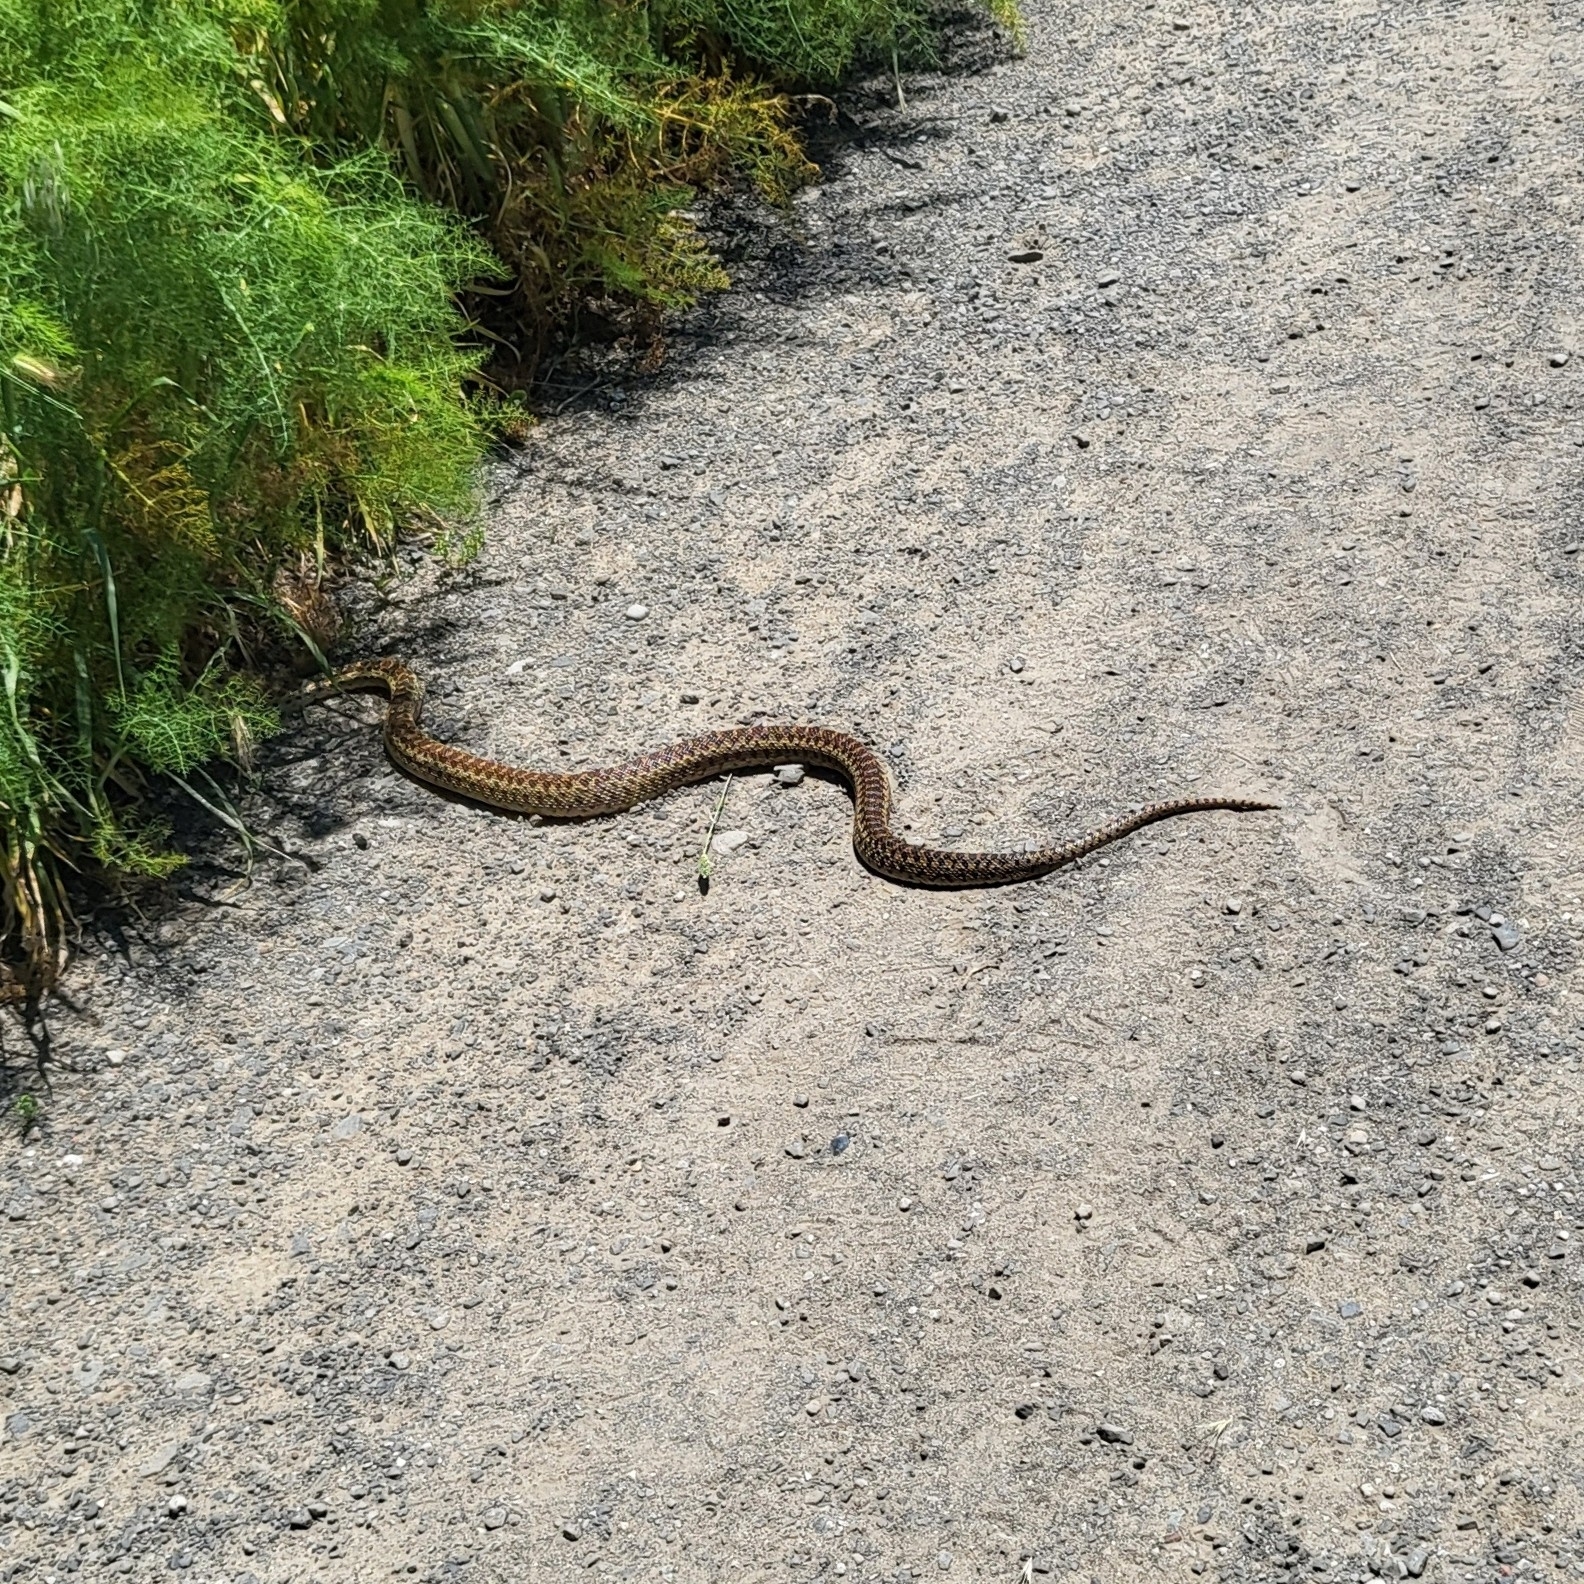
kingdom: Animalia
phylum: Chordata
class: Squamata
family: Colubridae
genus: Pituophis
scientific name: Pituophis catenifer
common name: Gopher snake
